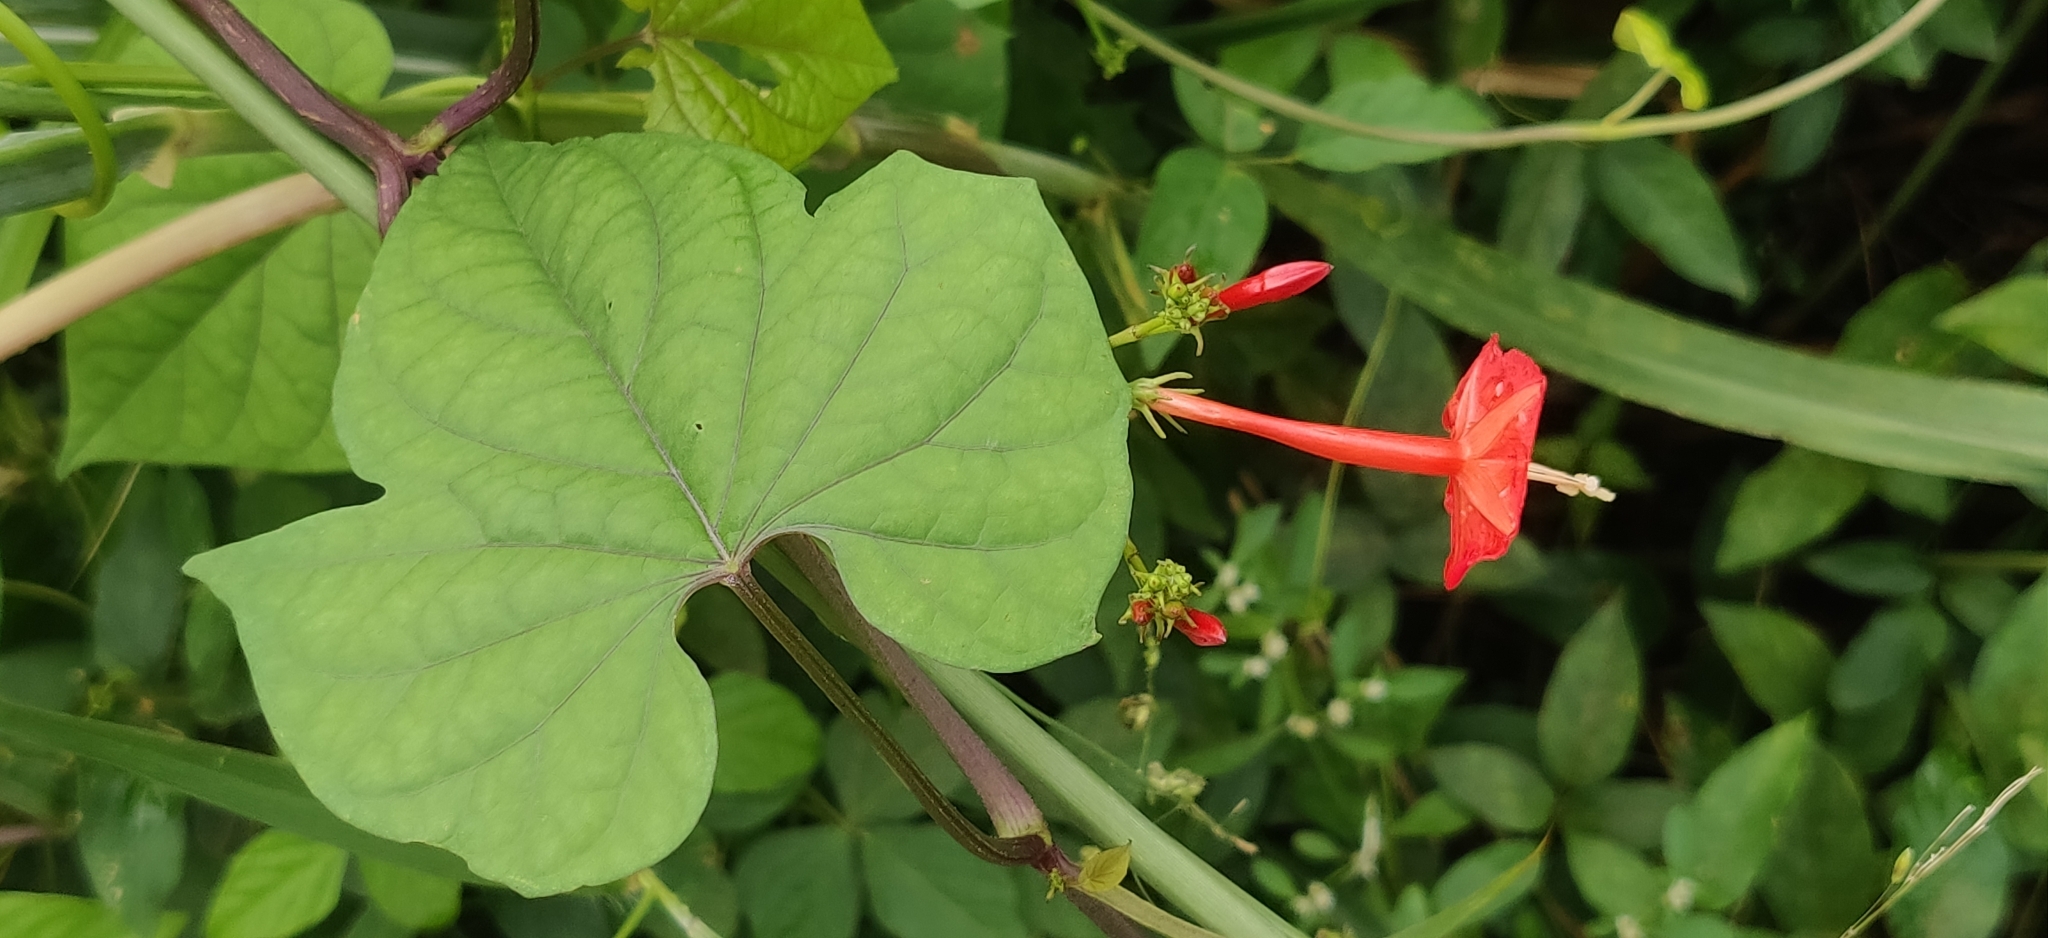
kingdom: Plantae
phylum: Tracheophyta
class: Magnoliopsida
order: Solanales
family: Convolvulaceae
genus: Ipomoea
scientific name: Ipomoea hederifolia
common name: Ivy-leaf morning-glory
